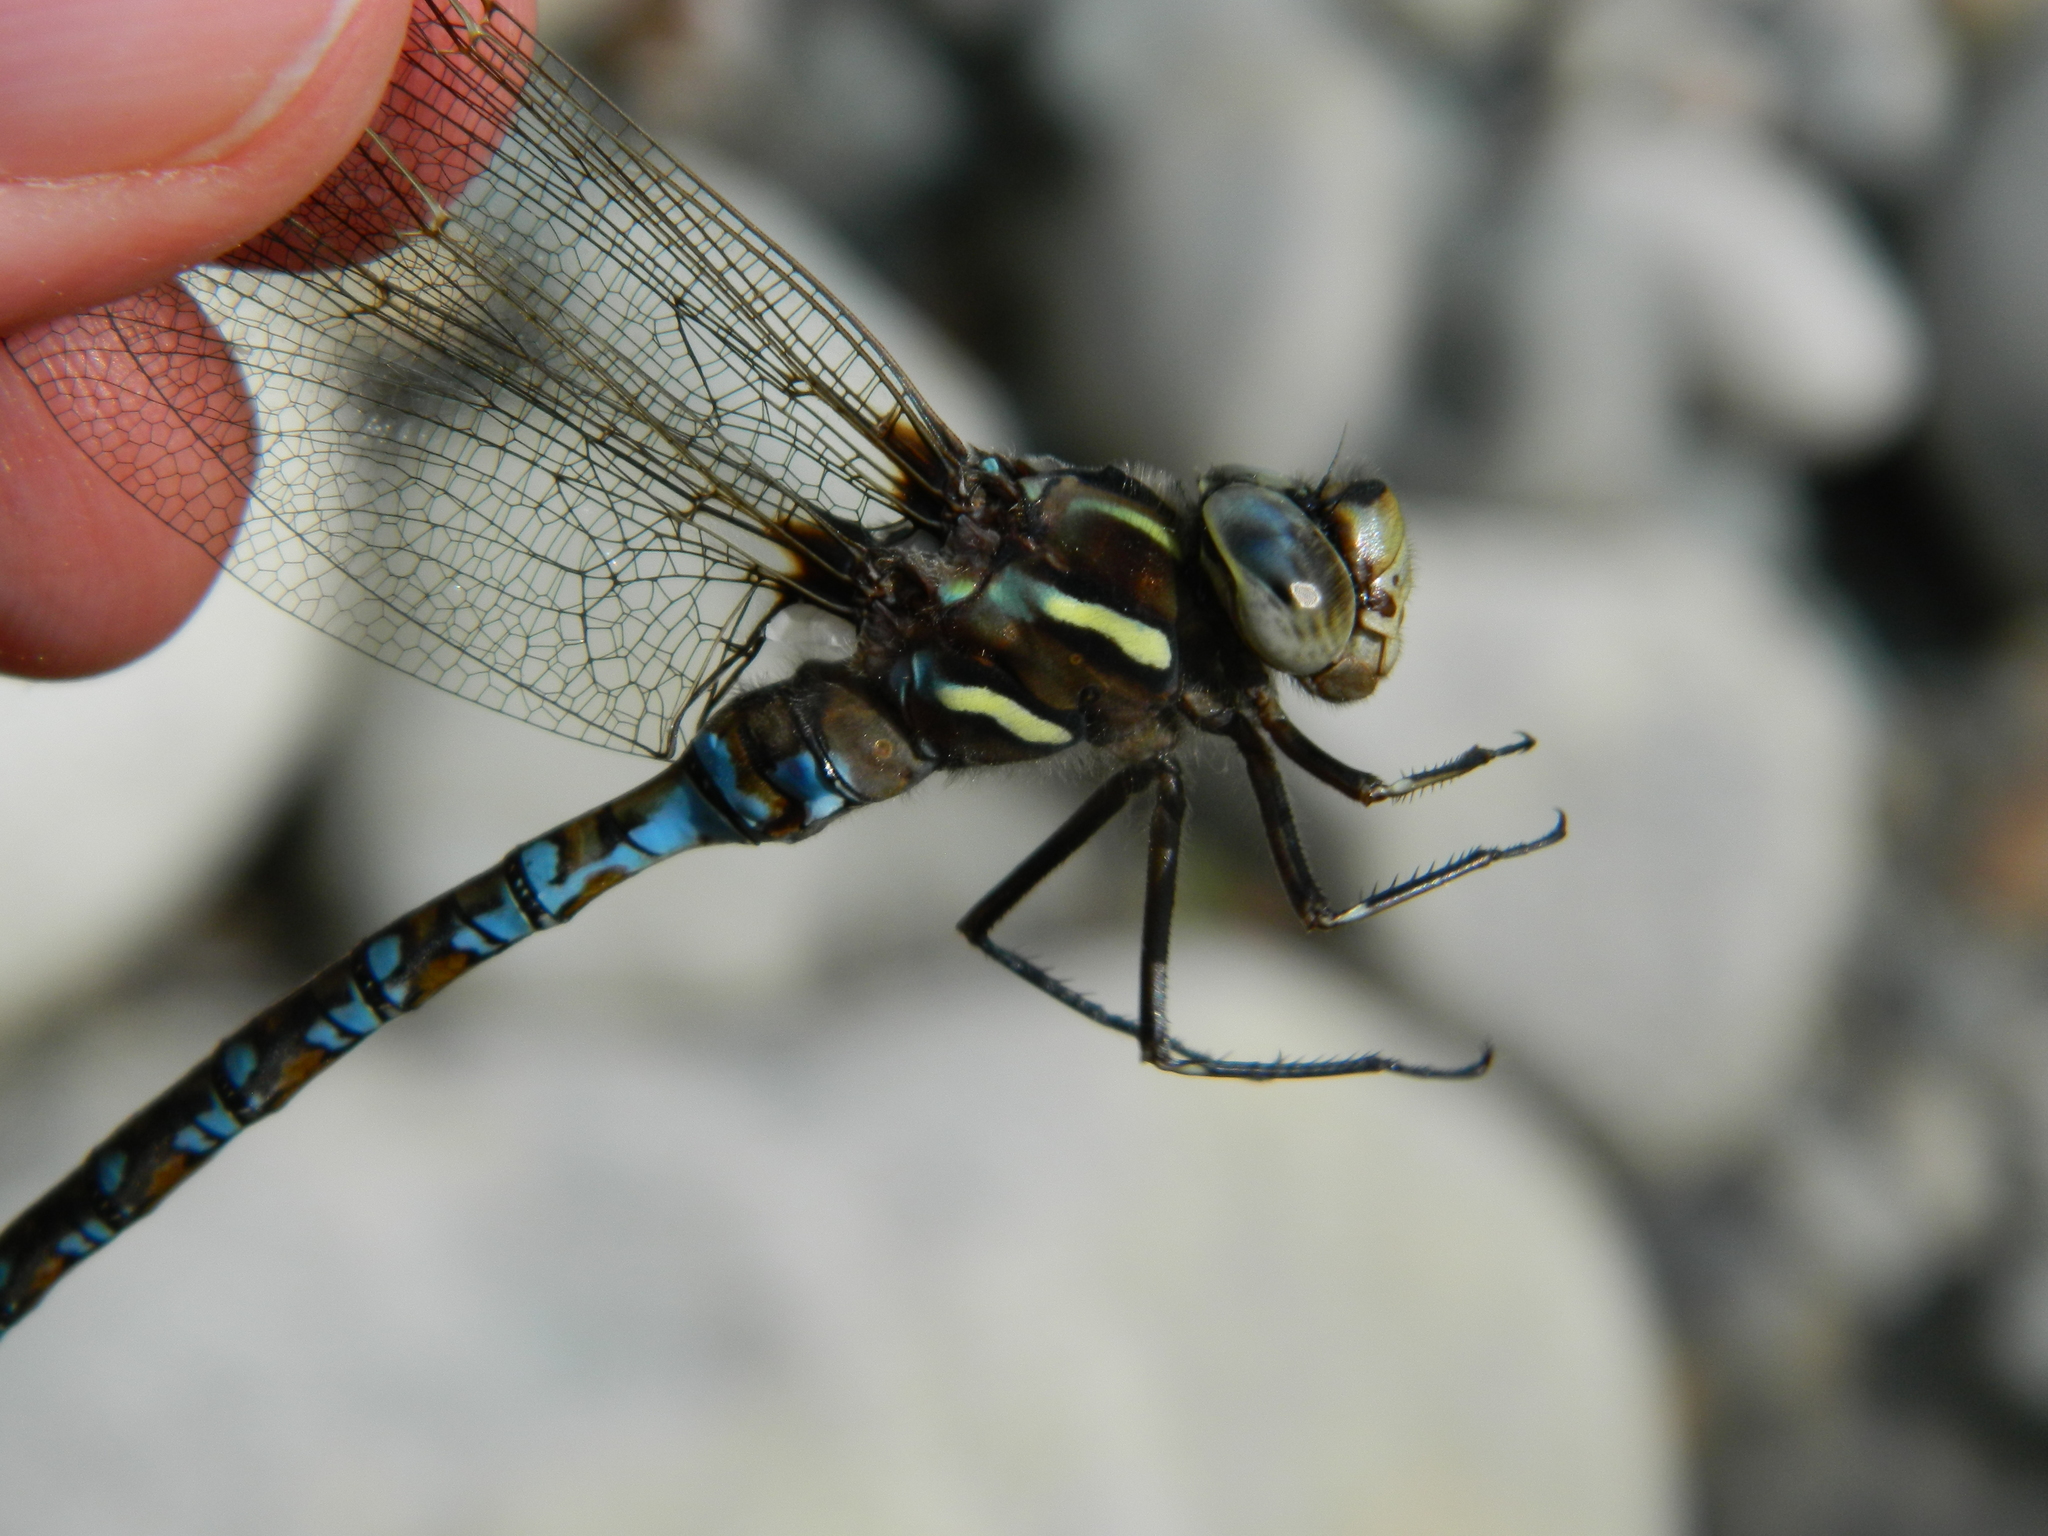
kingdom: Animalia
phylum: Arthropoda
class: Insecta
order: Odonata
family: Aeshnidae
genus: Basiaeschna
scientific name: Basiaeschna janata
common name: Springtime darner
